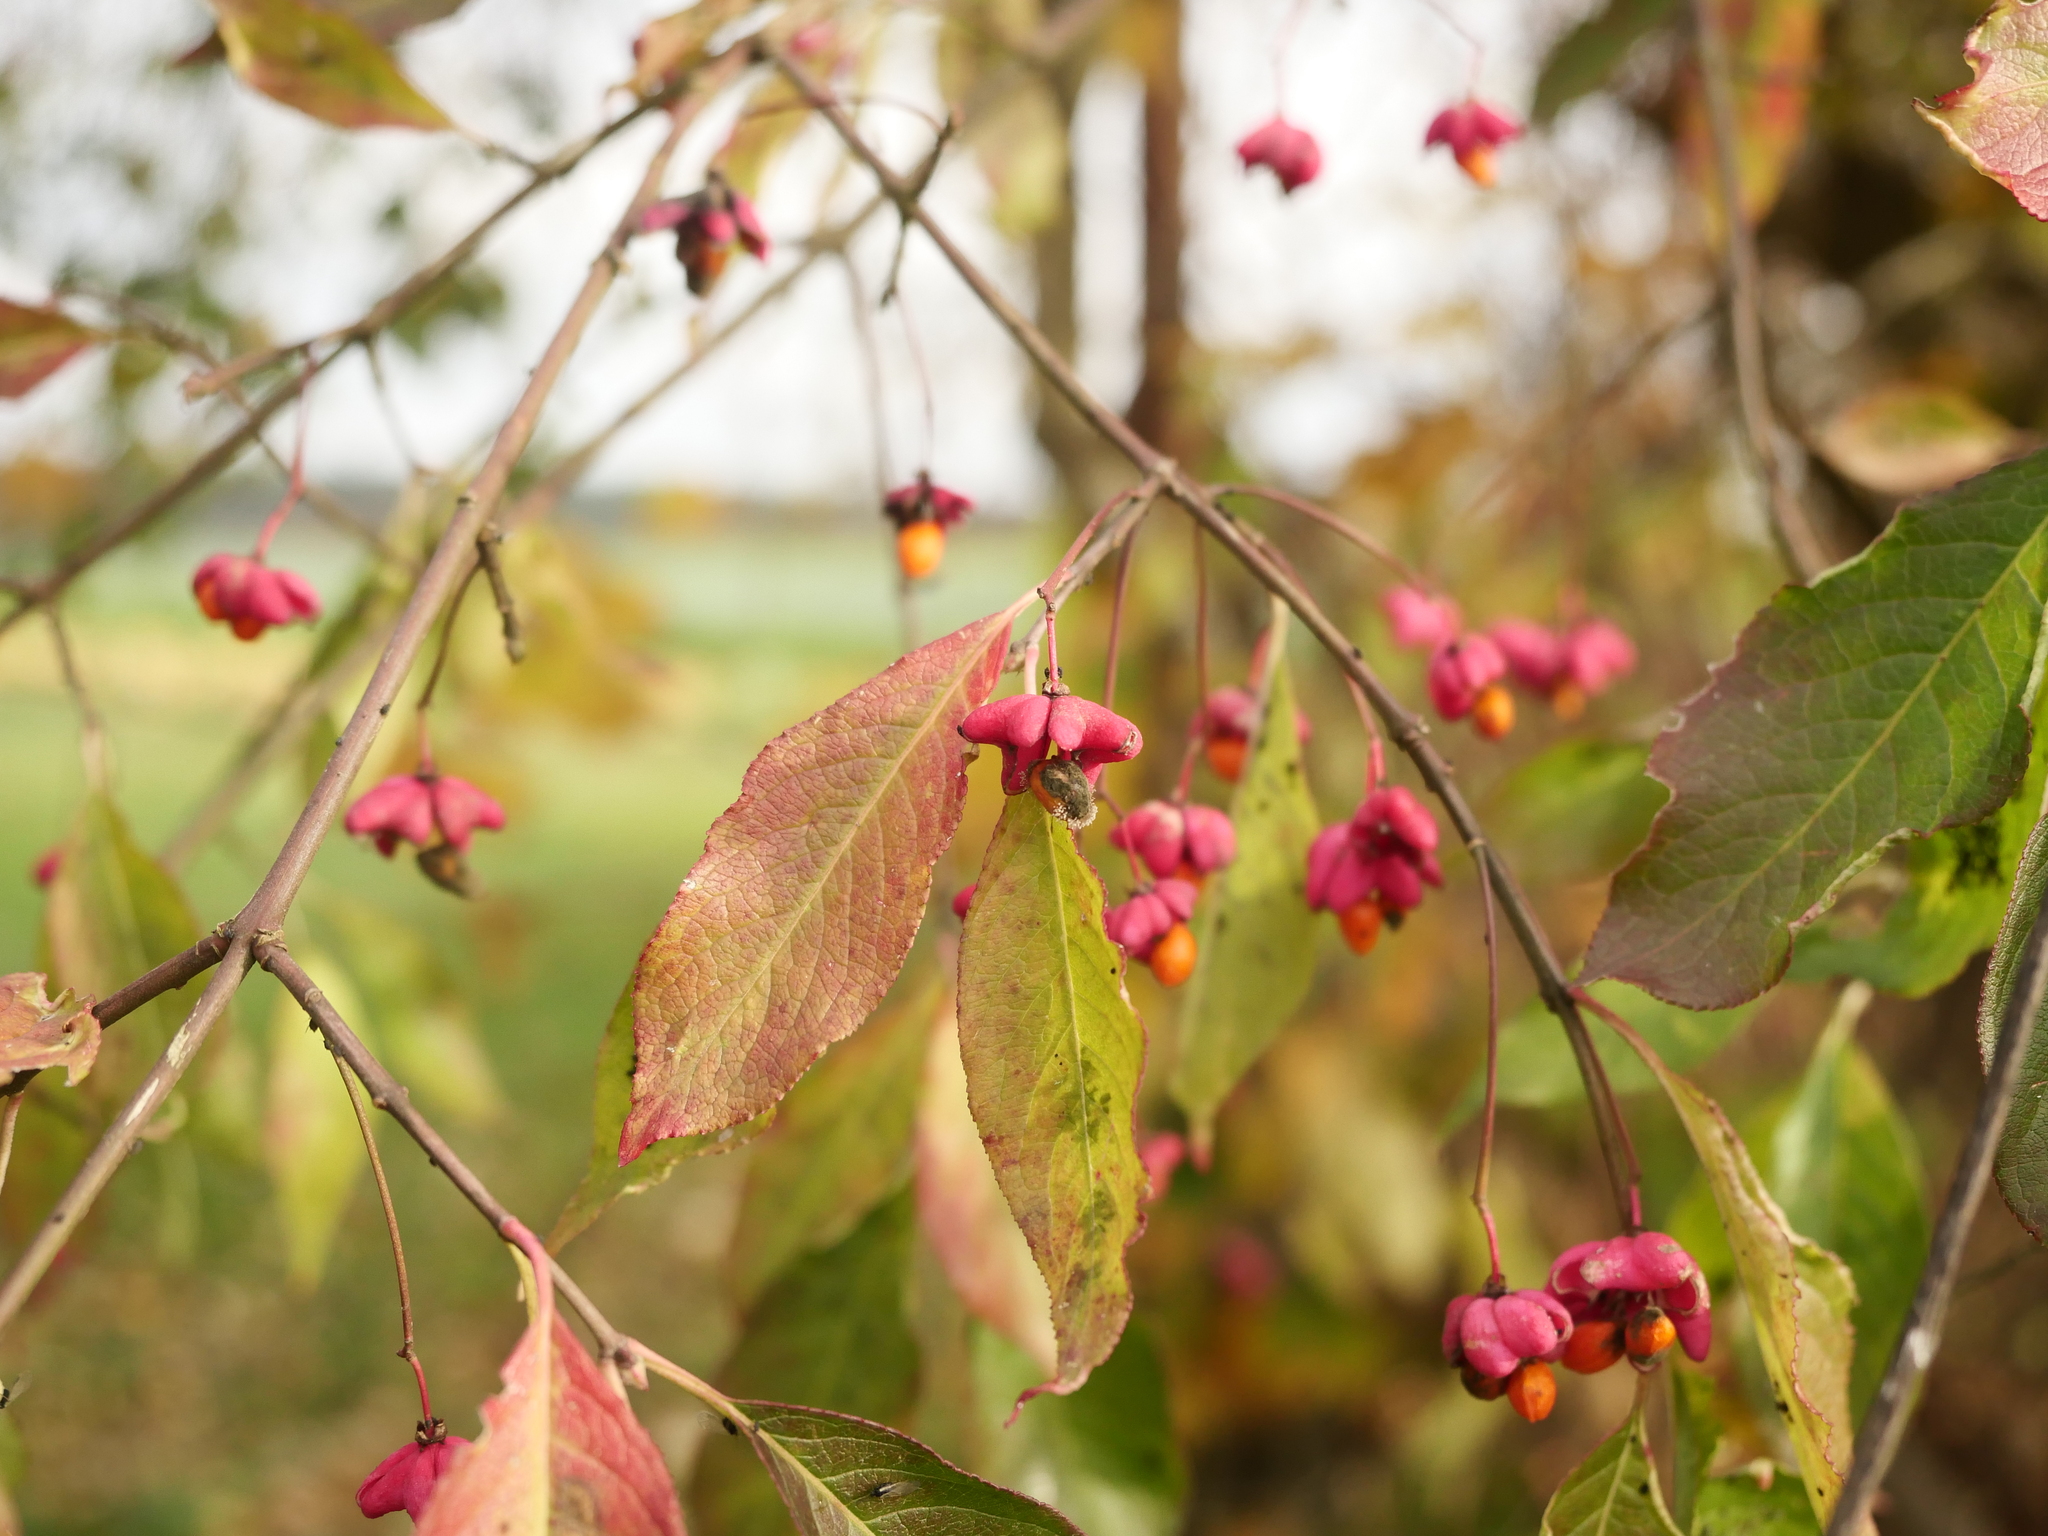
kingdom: Plantae
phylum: Tracheophyta
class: Magnoliopsida
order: Celastrales
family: Celastraceae
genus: Euonymus
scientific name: Euonymus europaeus
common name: Spindle
